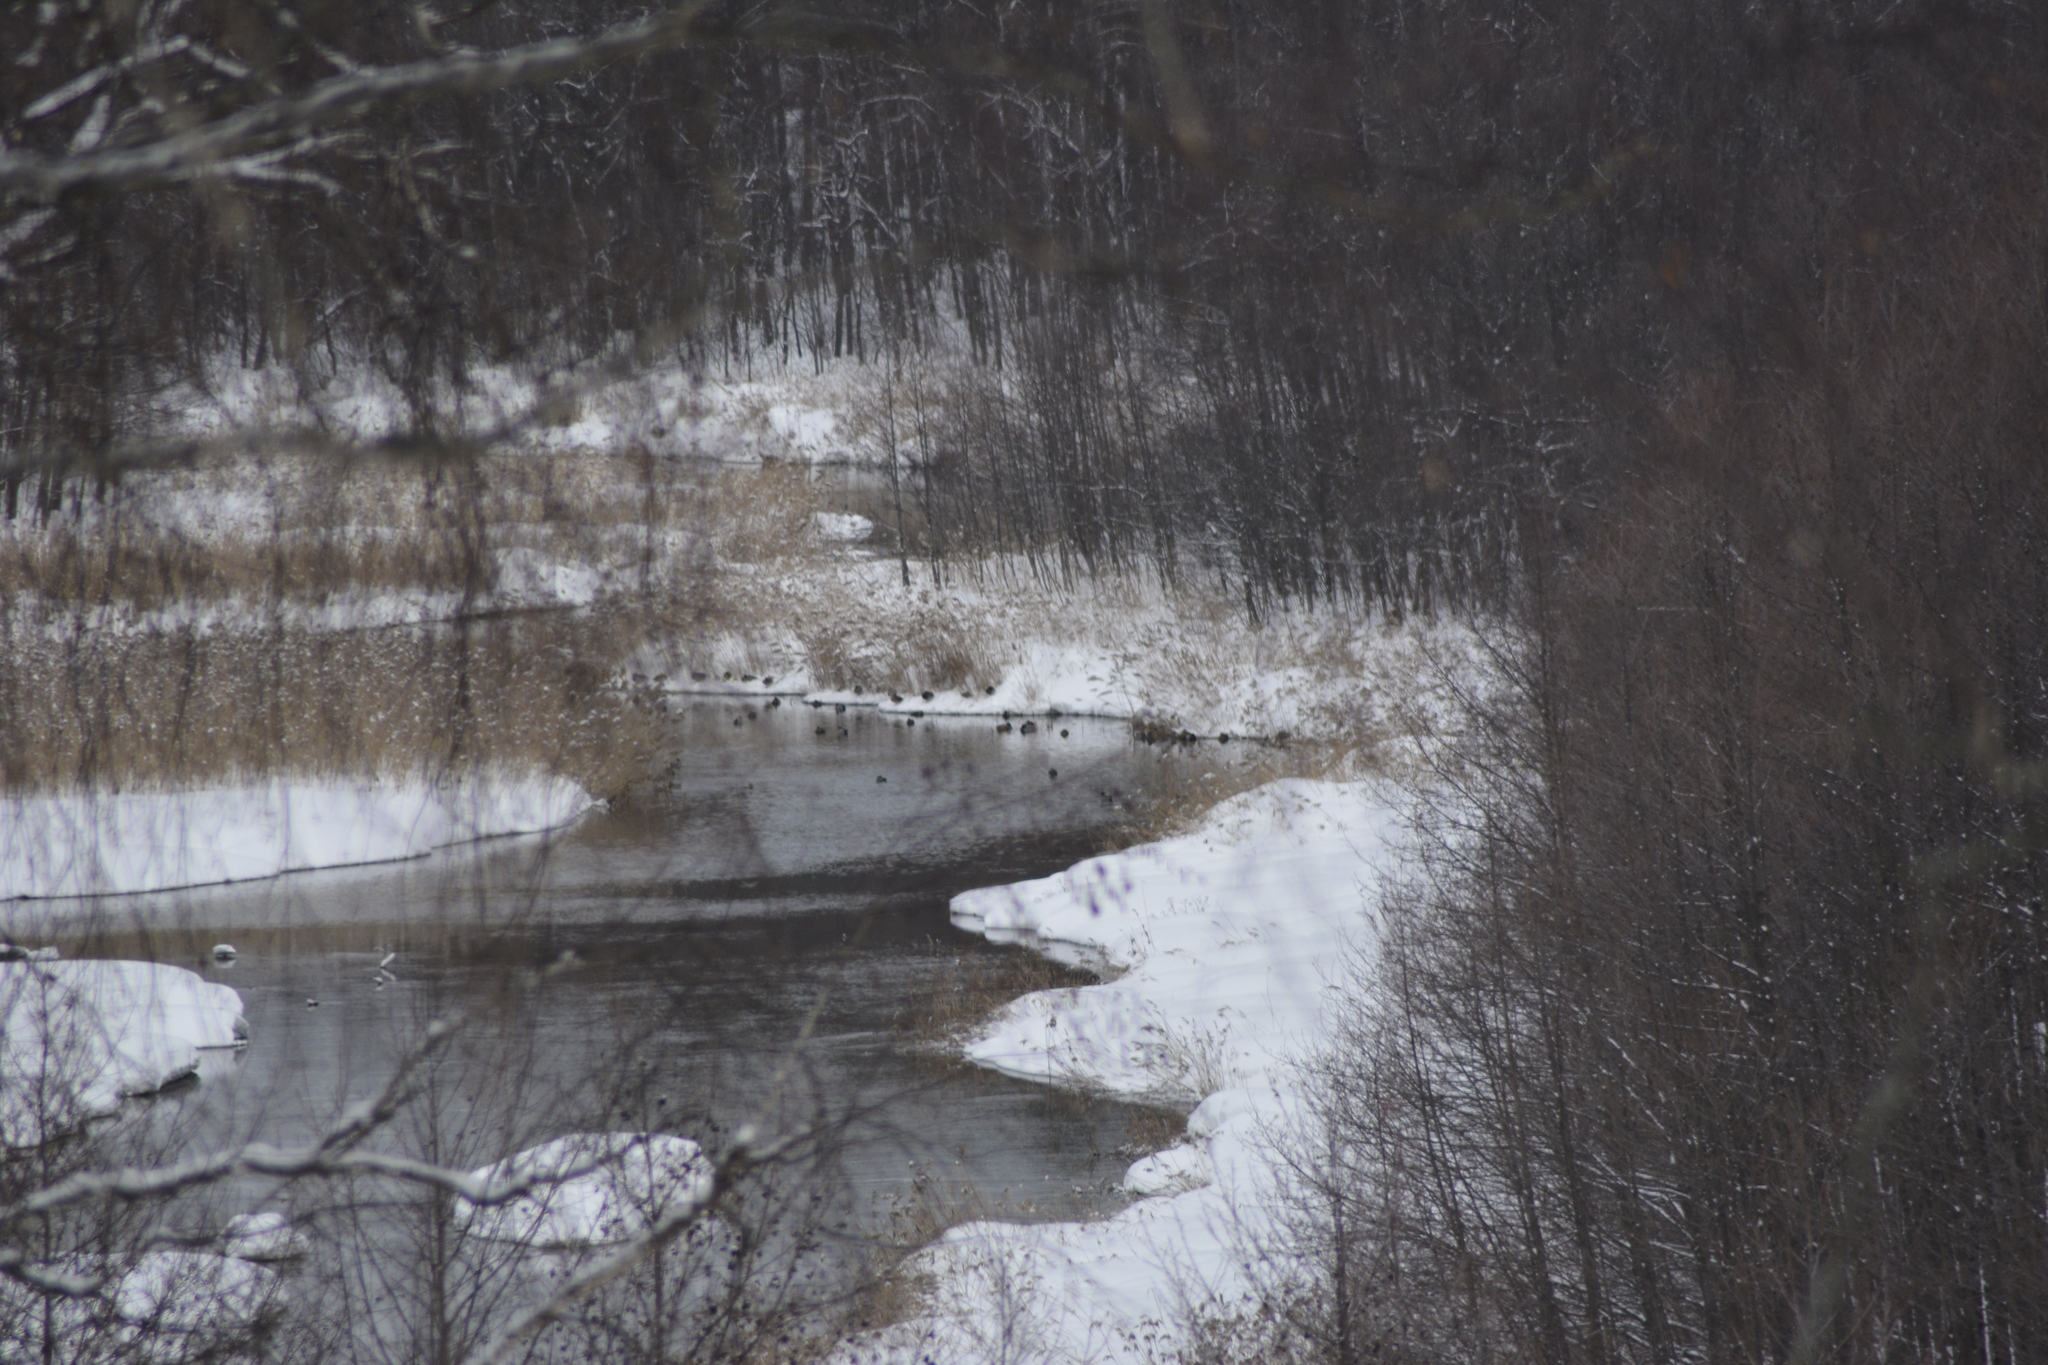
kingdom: Animalia
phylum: Chordata
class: Aves
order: Anseriformes
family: Anatidae
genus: Anas
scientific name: Anas platyrhynchos
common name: Mallard
